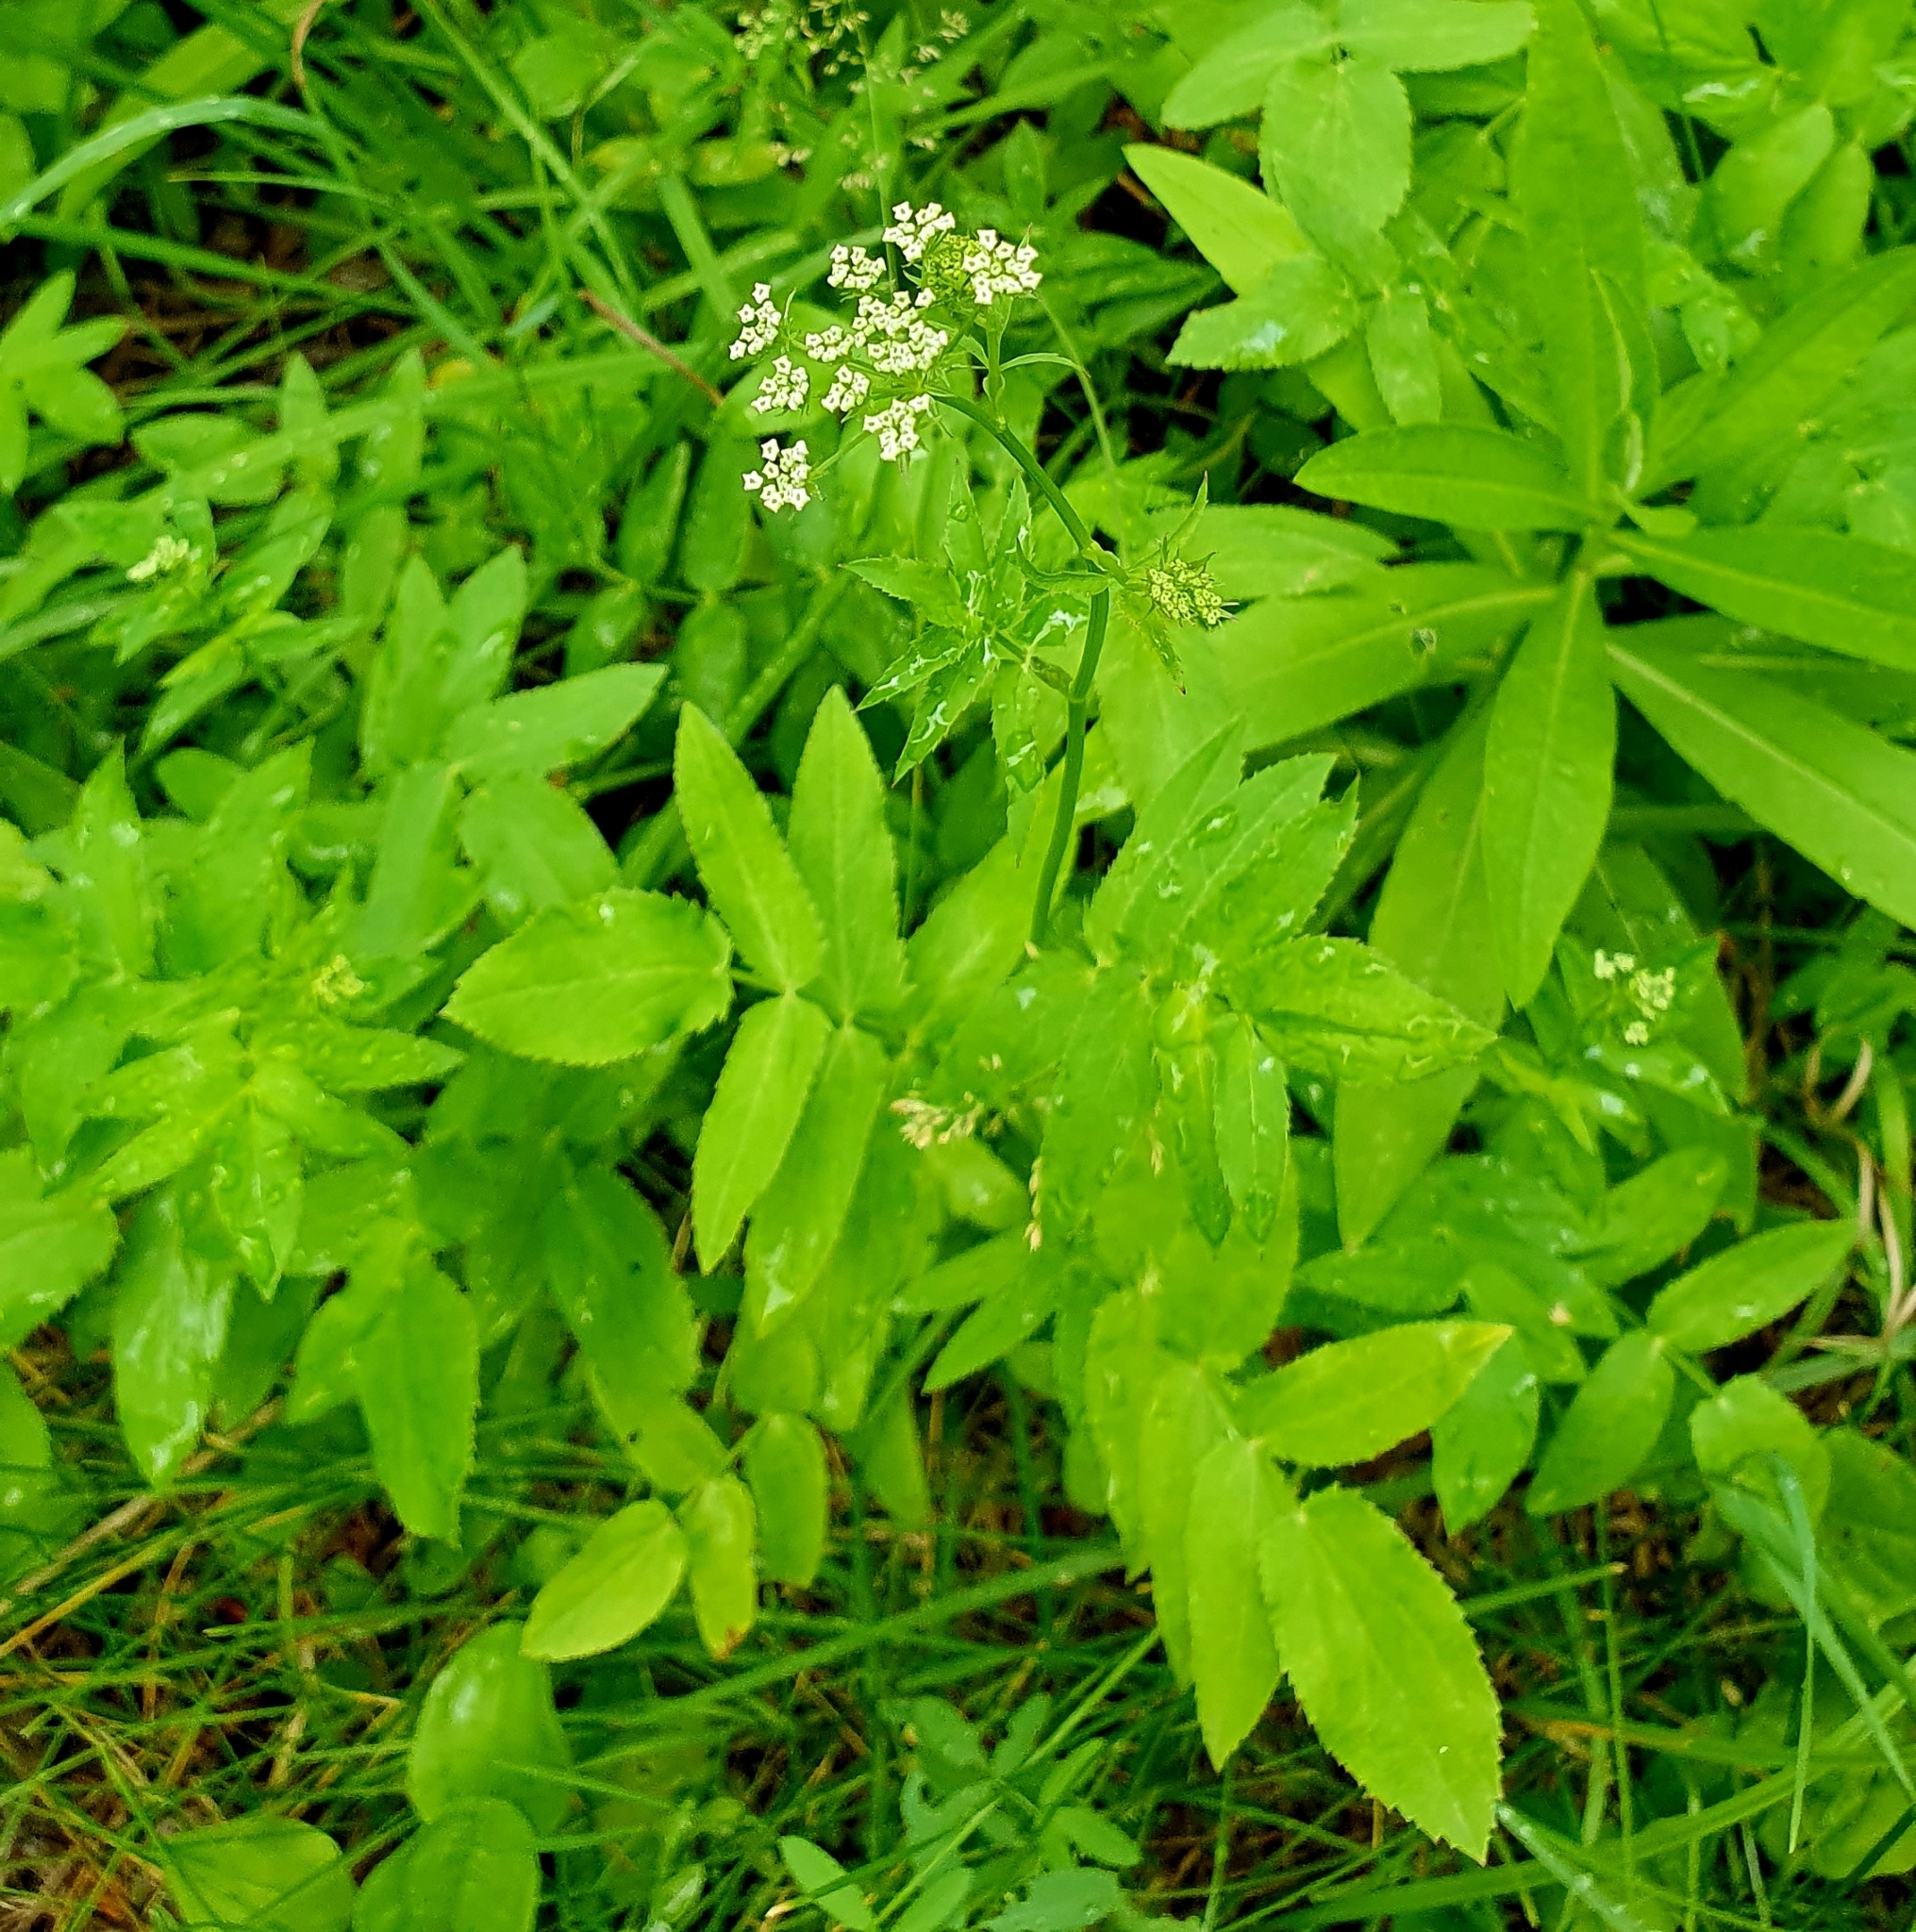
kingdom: Plantae
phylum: Tracheophyta
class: Magnoliopsida
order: Apiales
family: Apiaceae
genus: Sium
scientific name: Sium latifolium
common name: Greater water-parsnip
